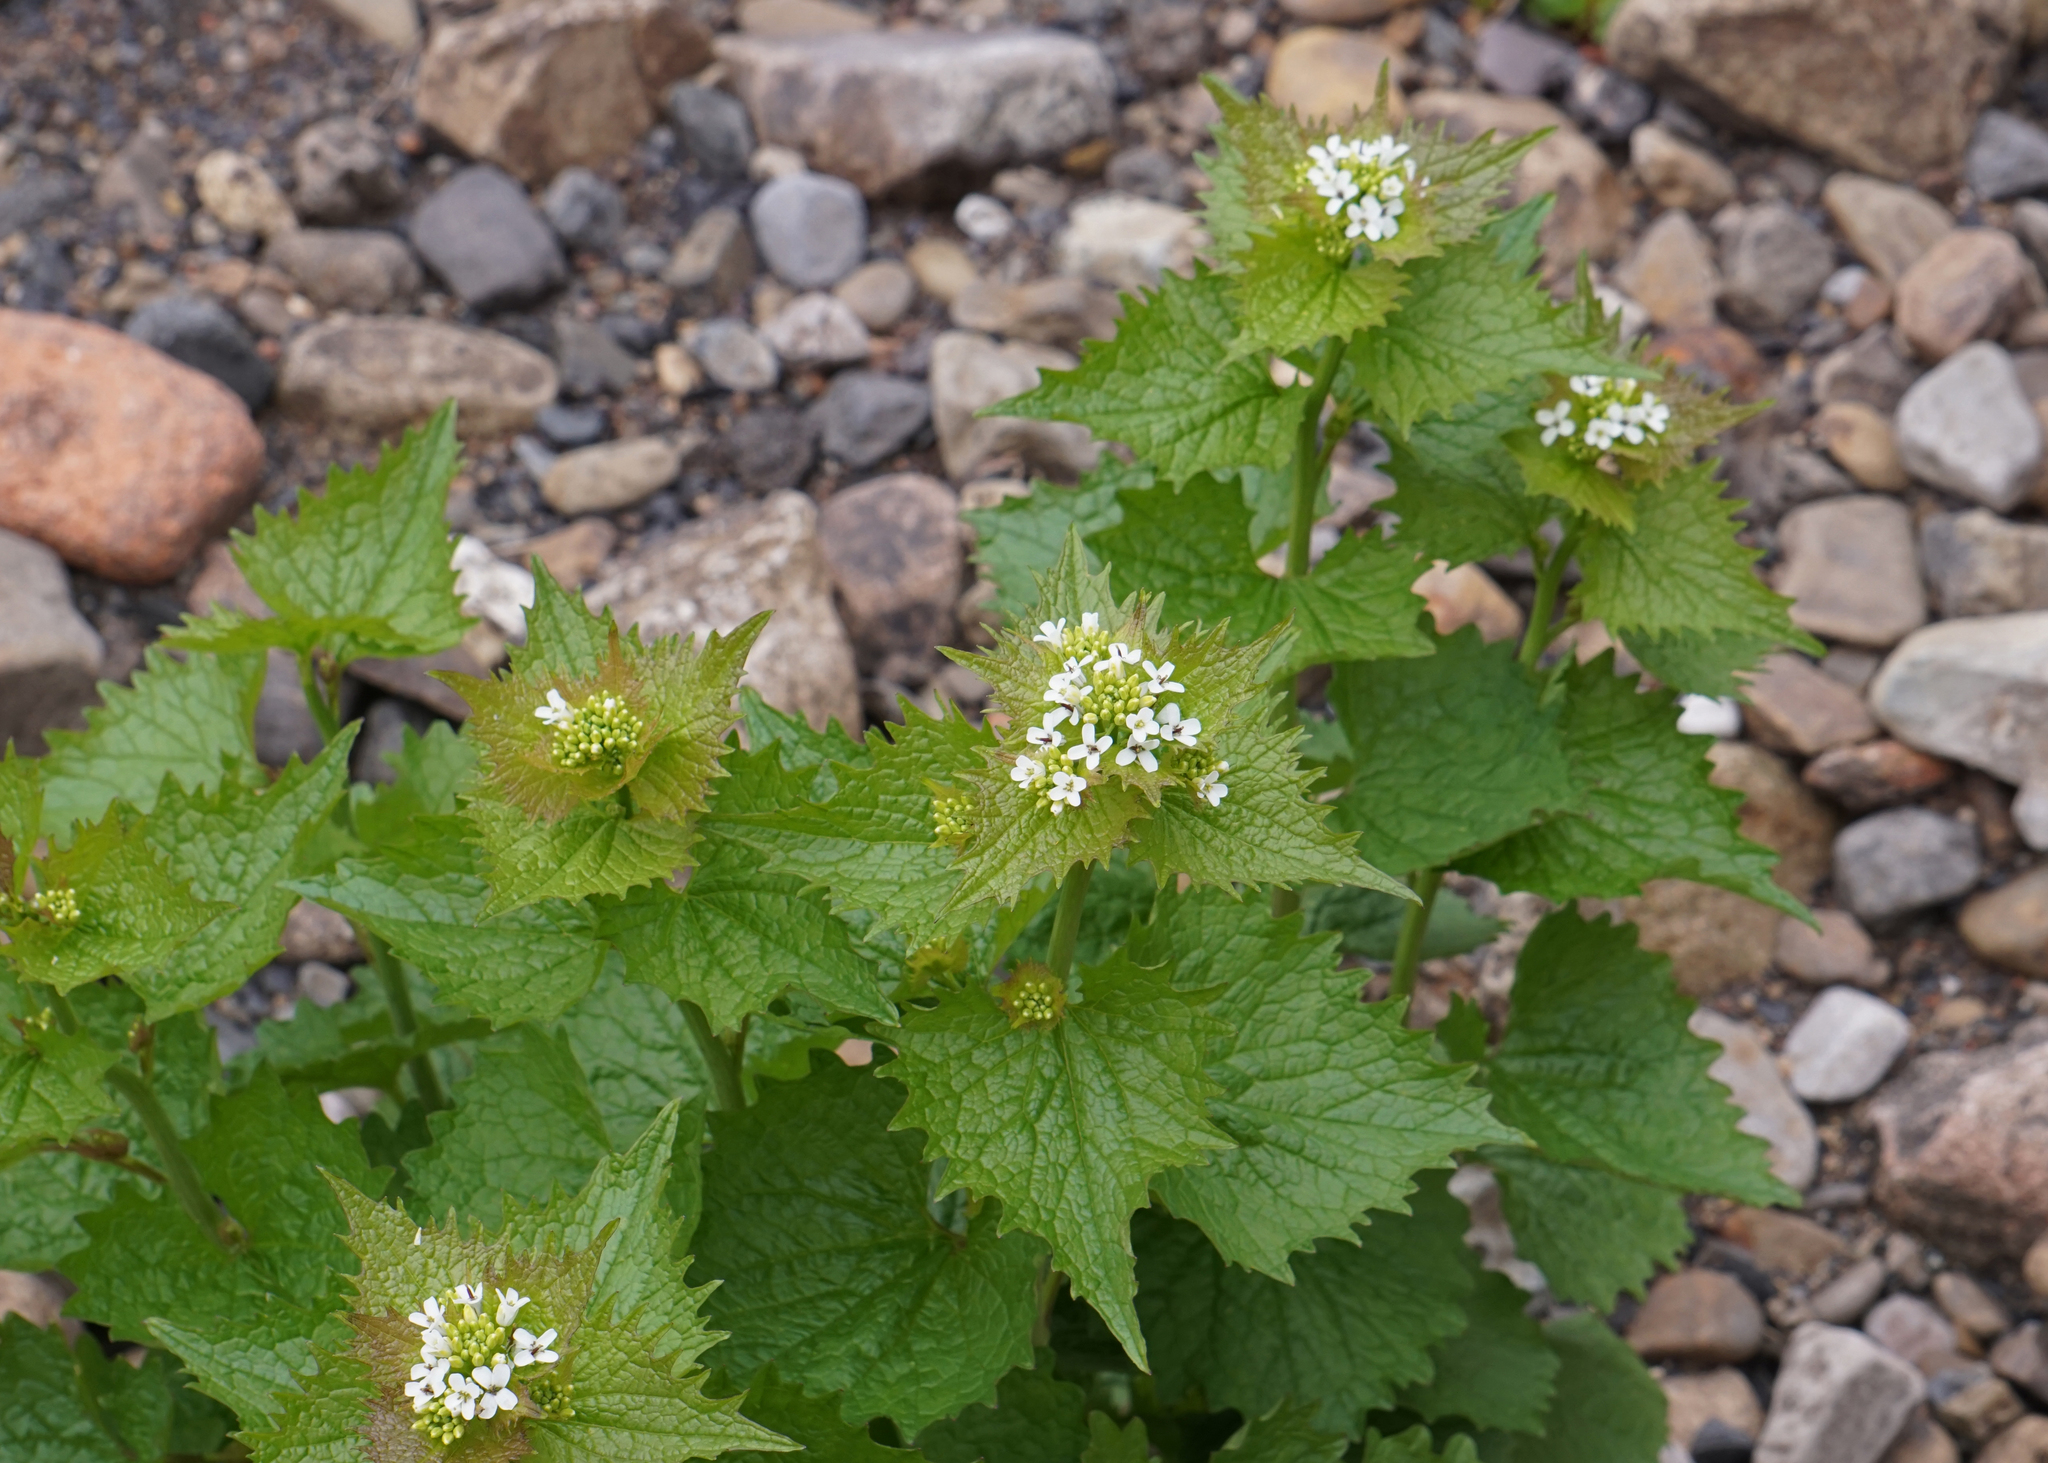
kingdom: Plantae
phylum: Tracheophyta
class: Magnoliopsida
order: Brassicales
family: Brassicaceae
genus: Alliaria
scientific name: Alliaria petiolata
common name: Garlic mustard
